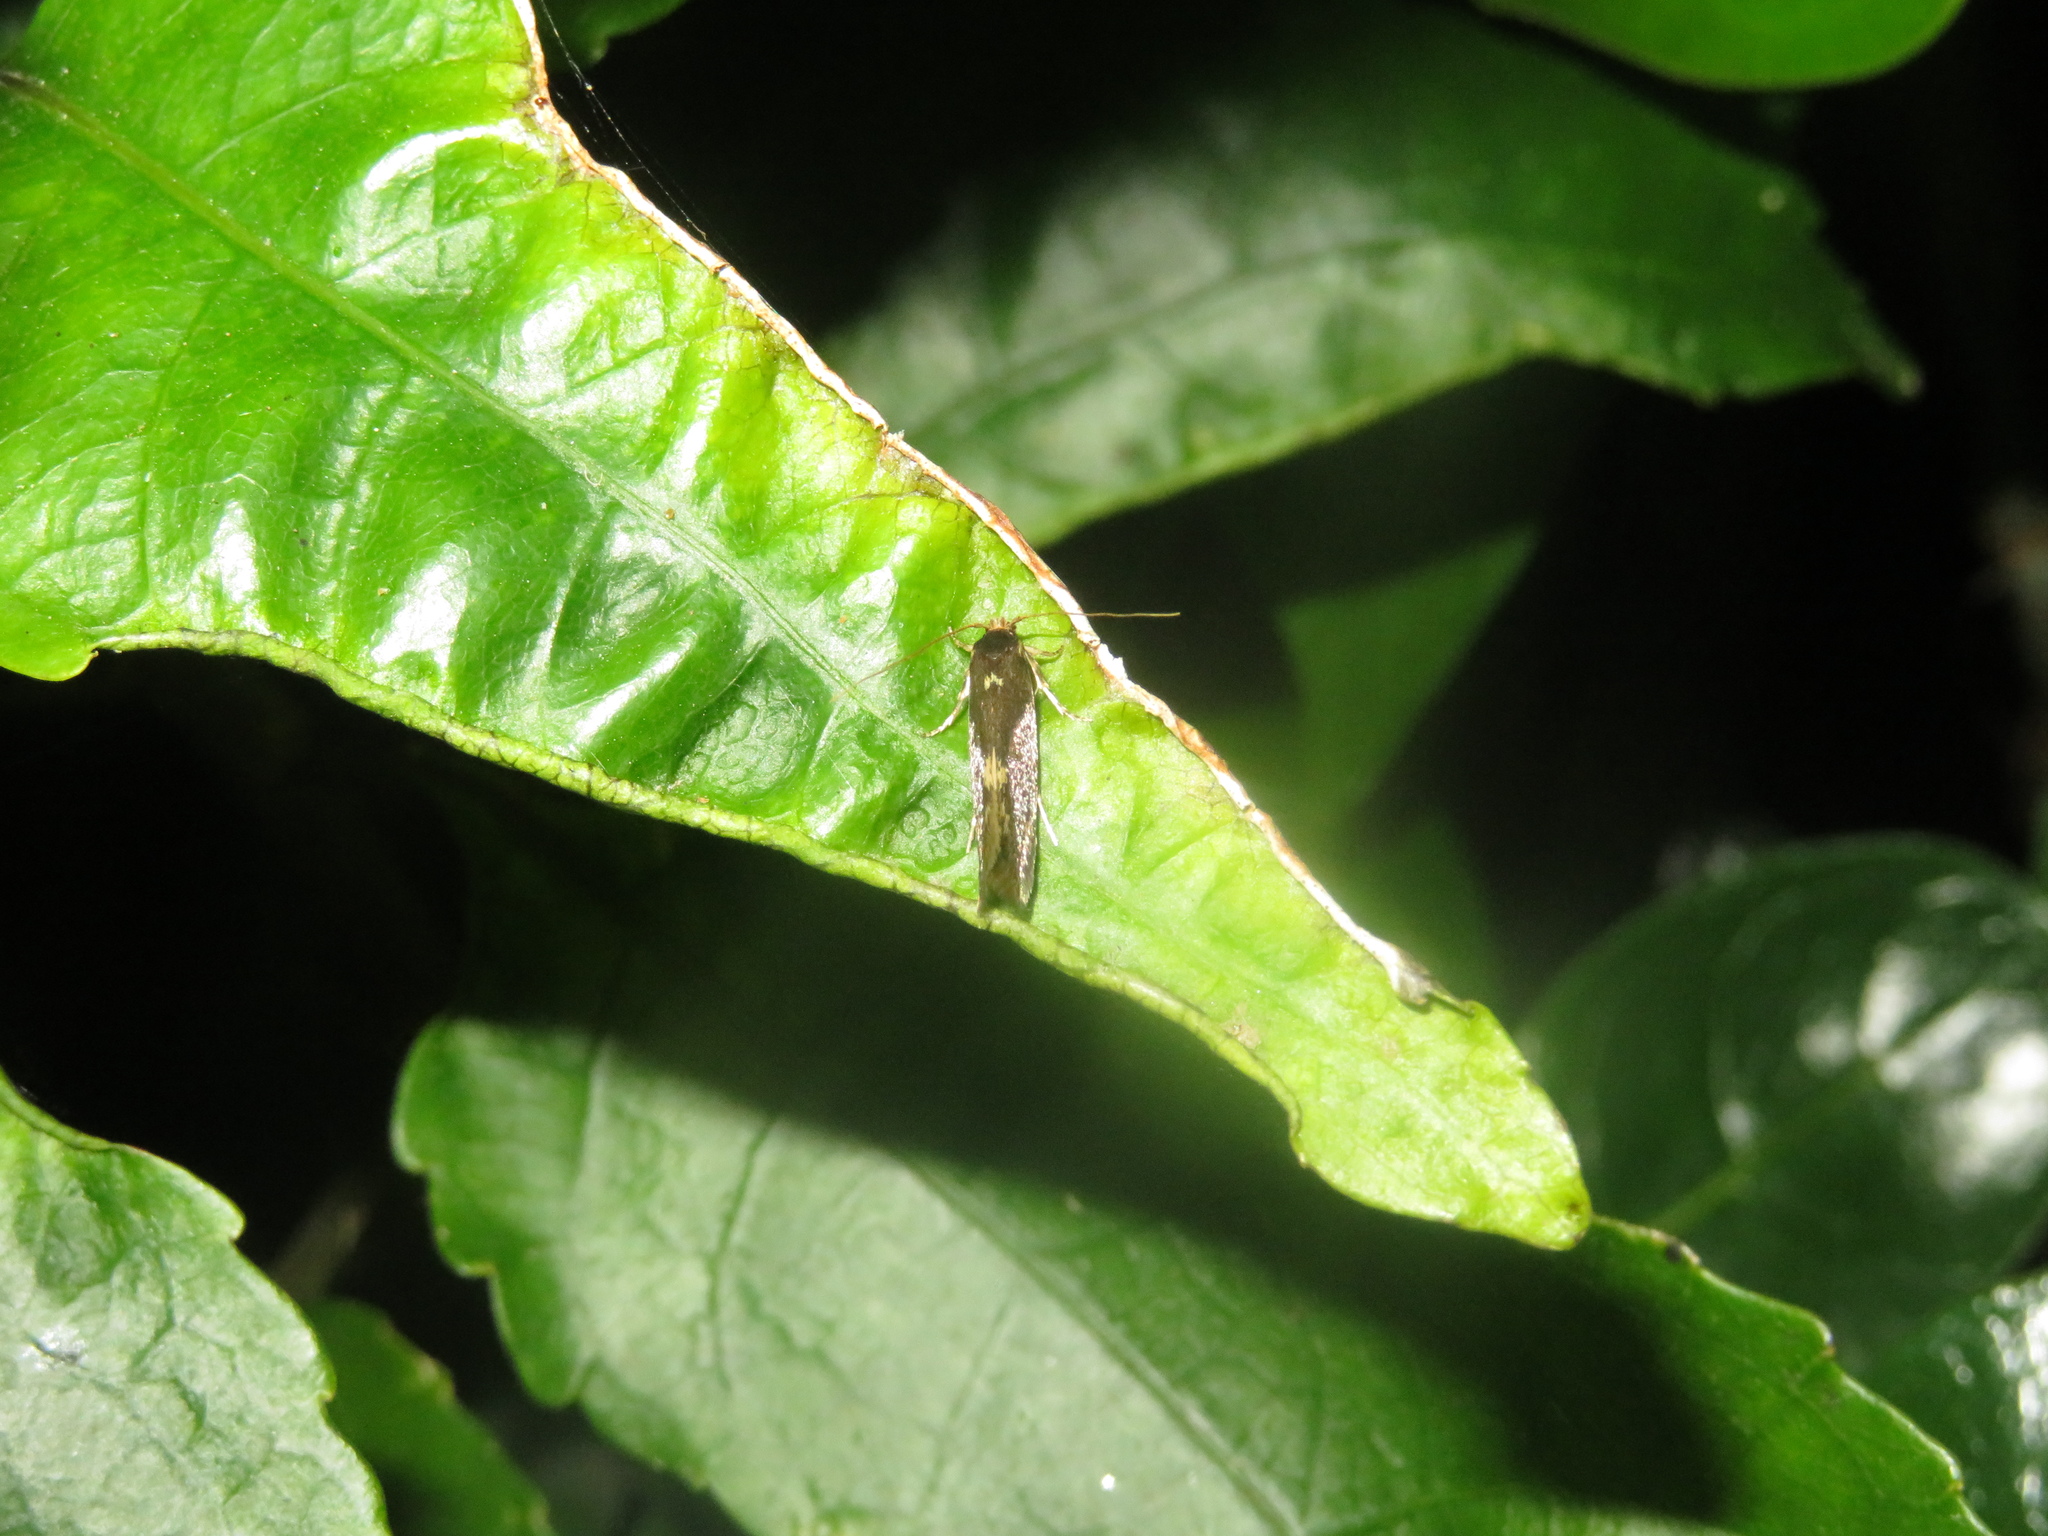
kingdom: Animalia
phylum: Arthropoda
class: Insecta
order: Lepidoptera
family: Tineidae
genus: Opogona
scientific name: Opogona omoscopa
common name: Moth
